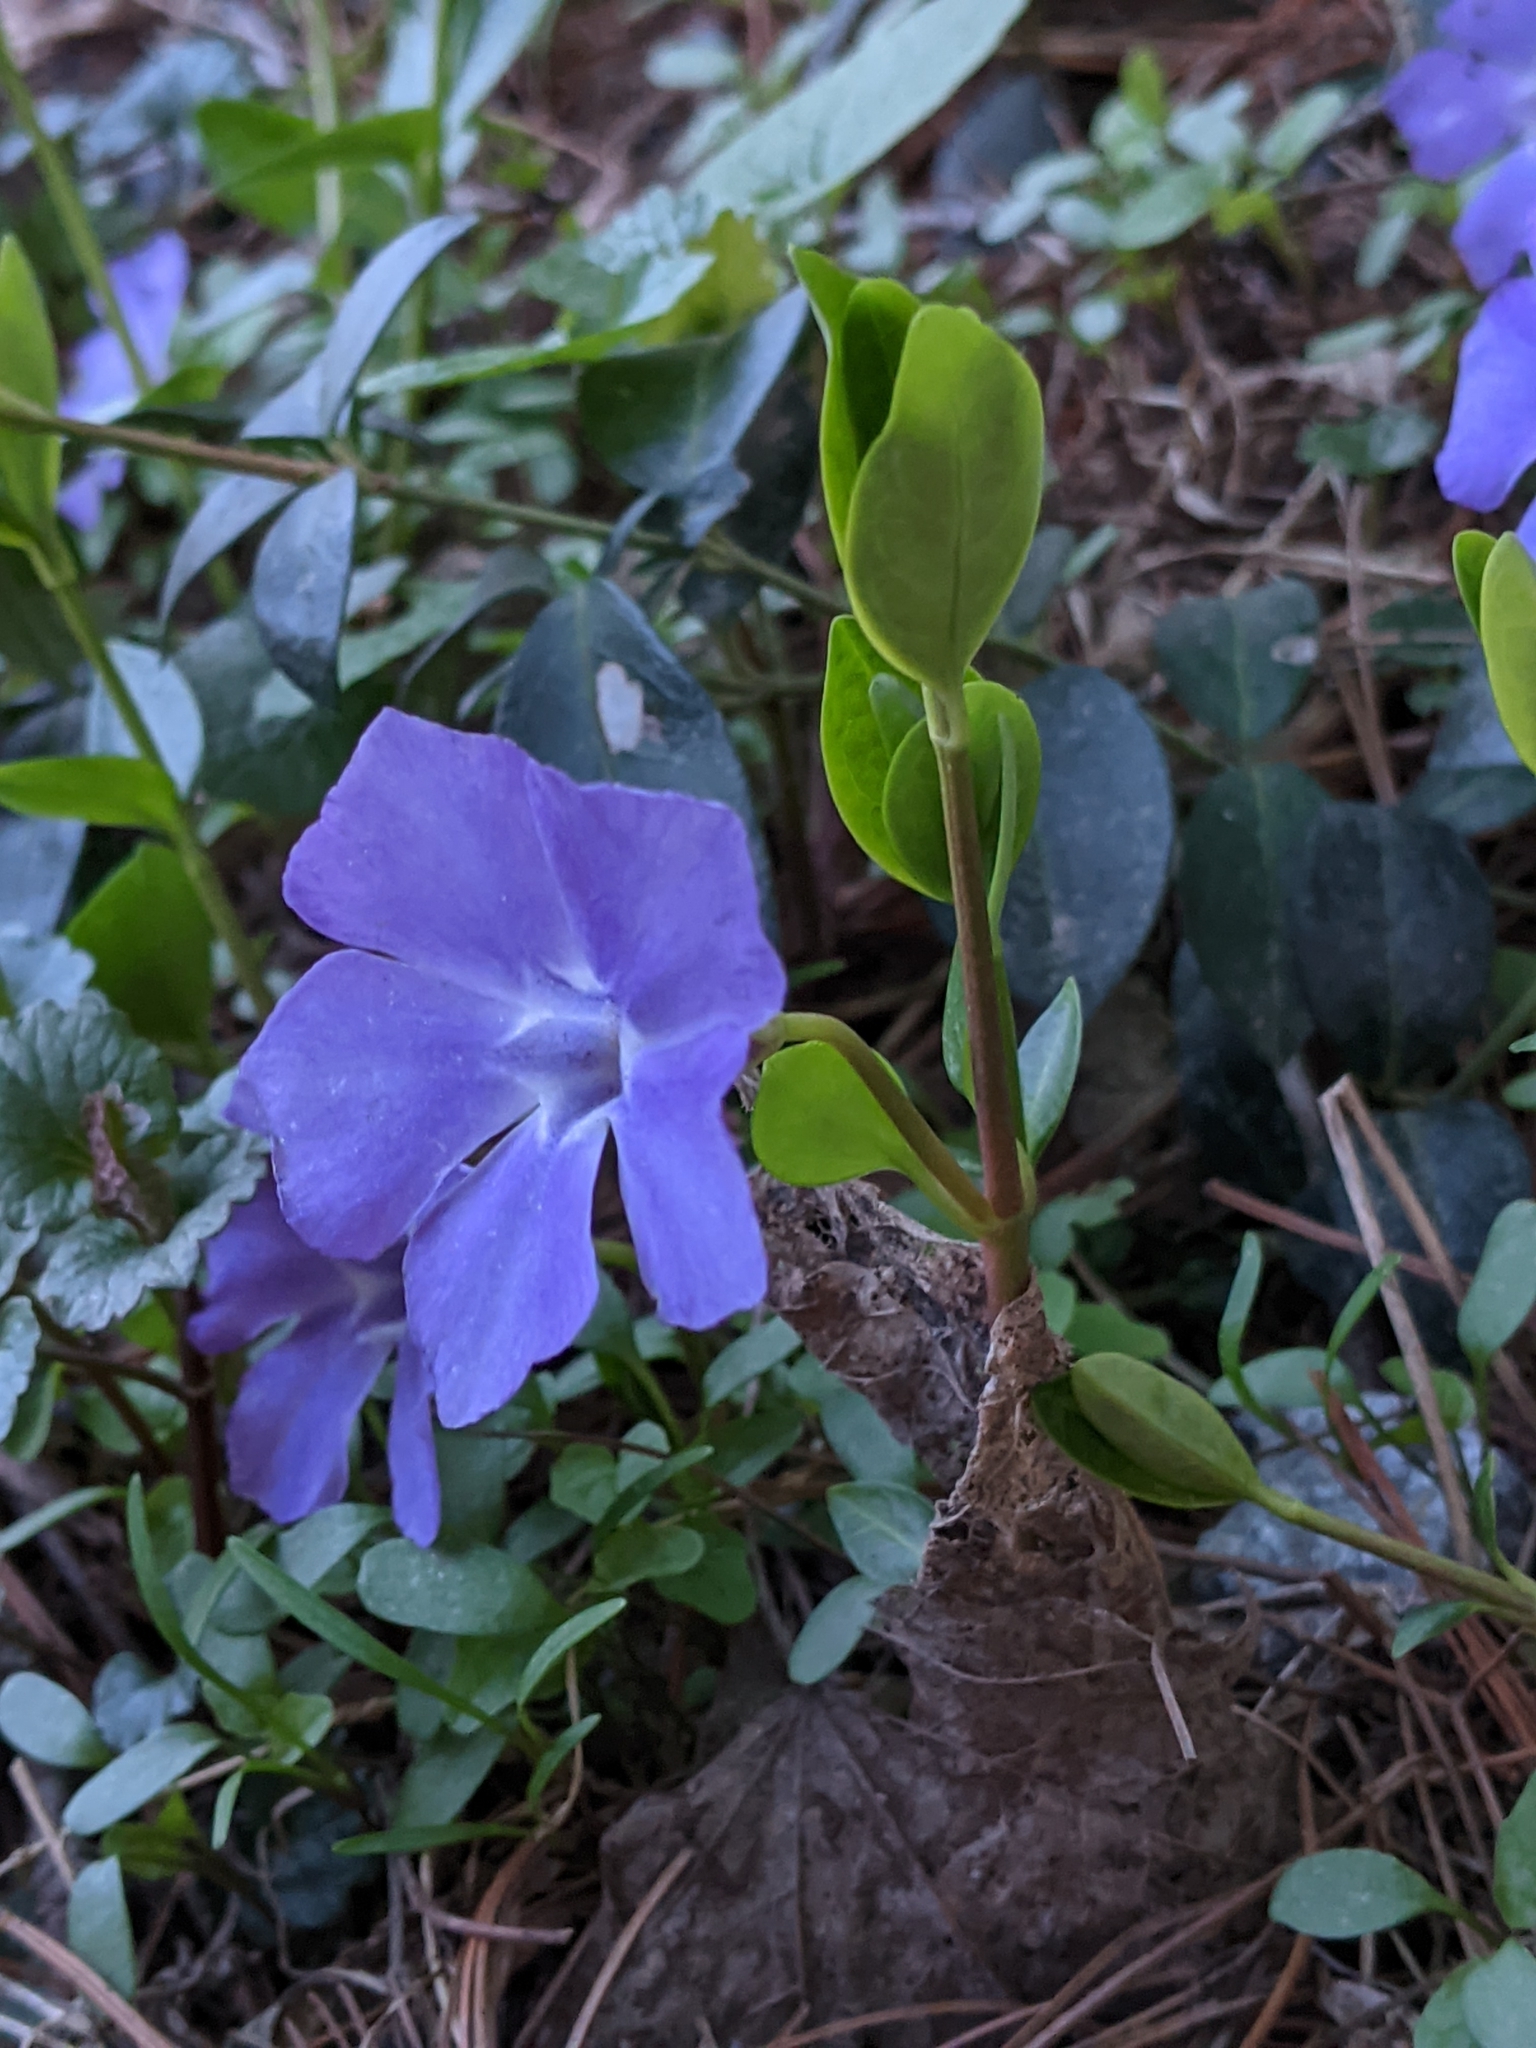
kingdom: Plantae
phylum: Tracheophyta
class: Magnoliopsida
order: Gentianales
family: Apocynaceae
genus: Vinca
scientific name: Vinca minor
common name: Lesser periwinkle
